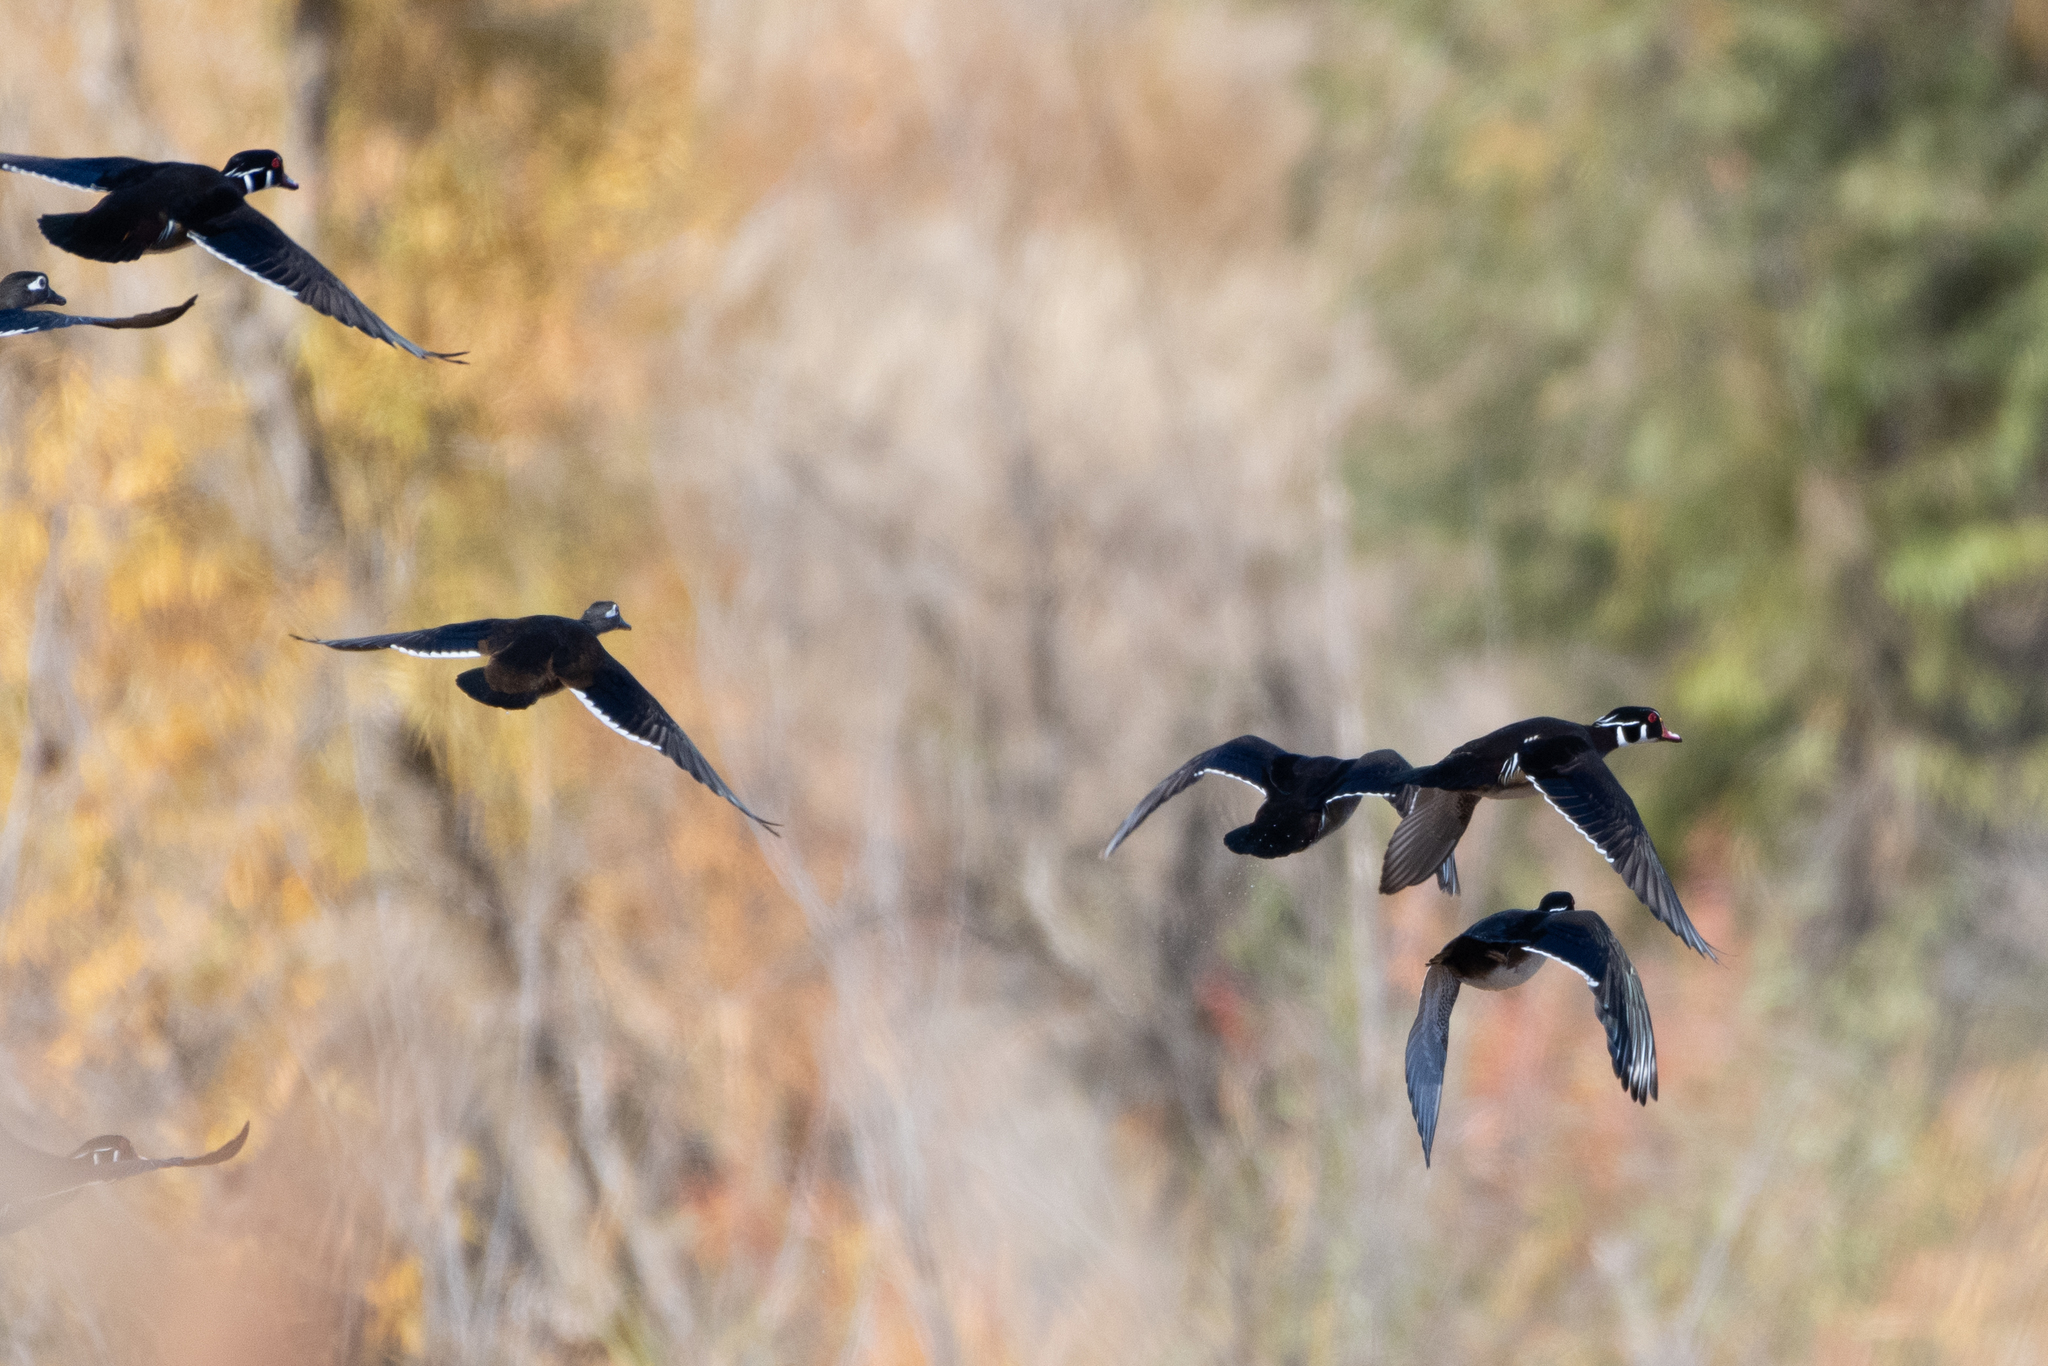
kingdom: Animalia
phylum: Chordata
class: Aves
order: Anseriformes
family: Anatidae
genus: Aix
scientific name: Aix sponsa
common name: Wood duck
